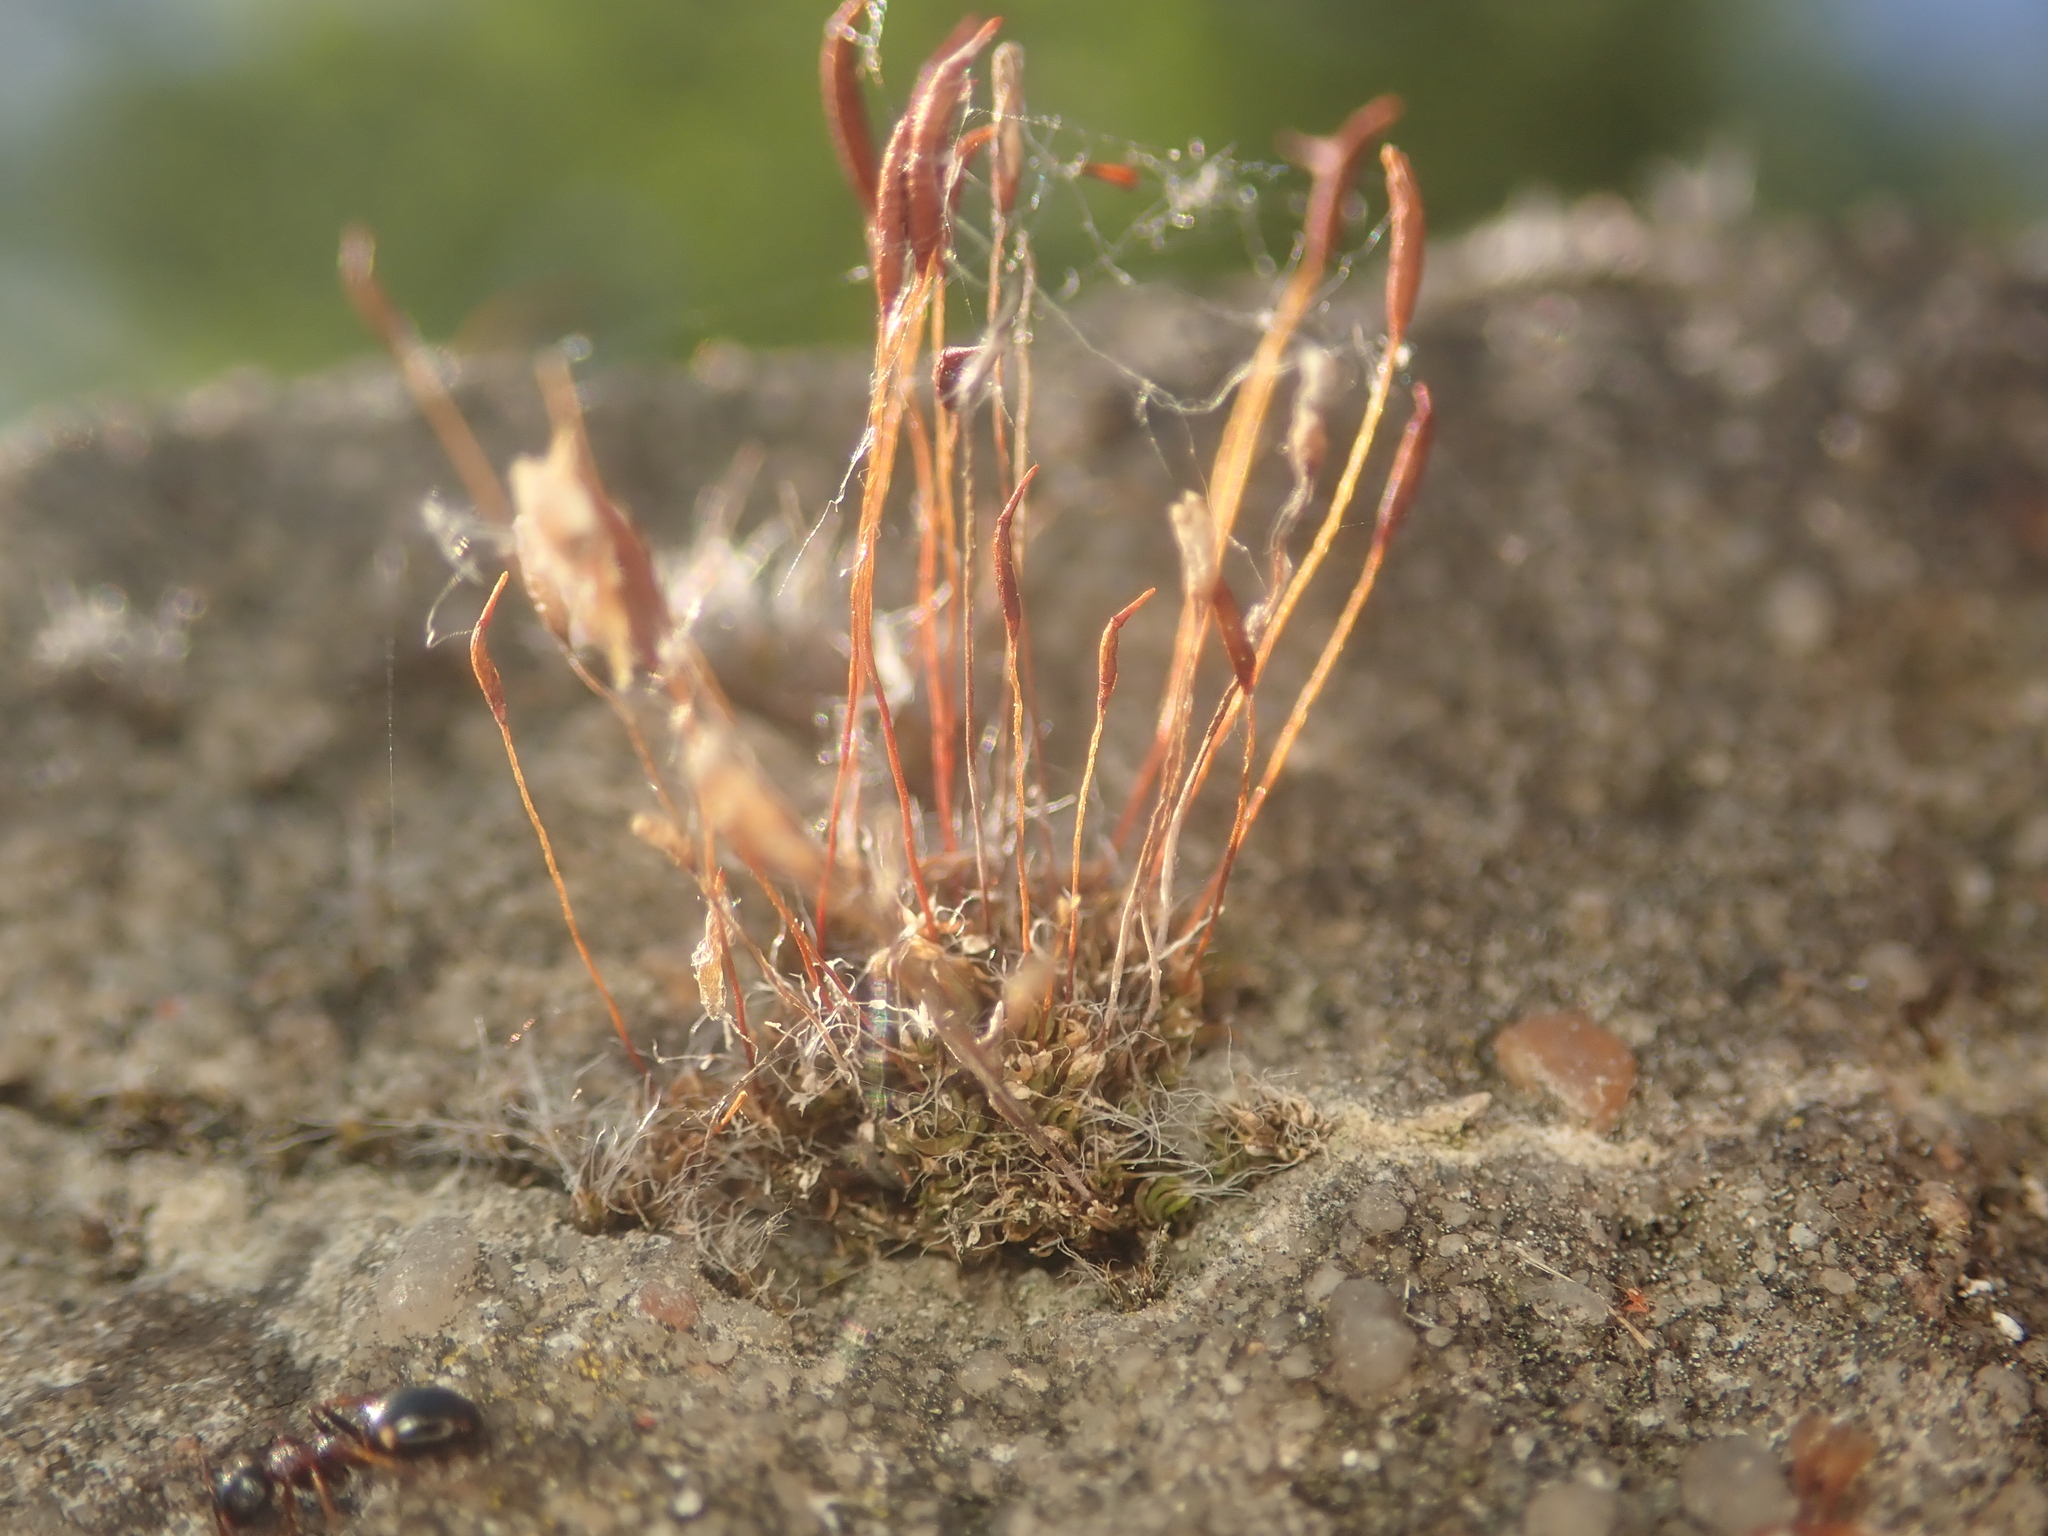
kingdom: Plantae
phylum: Bryophyta
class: Bryopsida
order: Pottiales
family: Pottiaceae
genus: Tortula
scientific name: Tortula muralis
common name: Wall screw-moss
